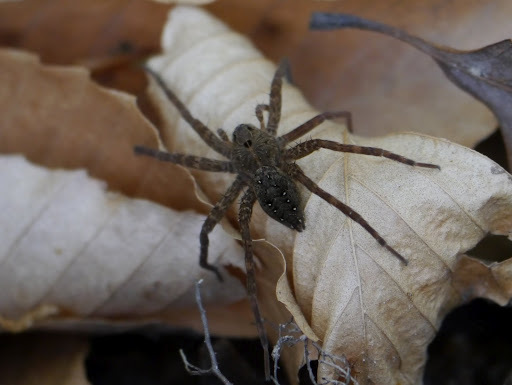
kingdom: Animalia
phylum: Arthropoda
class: Arachnida
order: Araneae
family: Pisauridae
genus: Dolomedes
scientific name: Dolomedes vittatus
